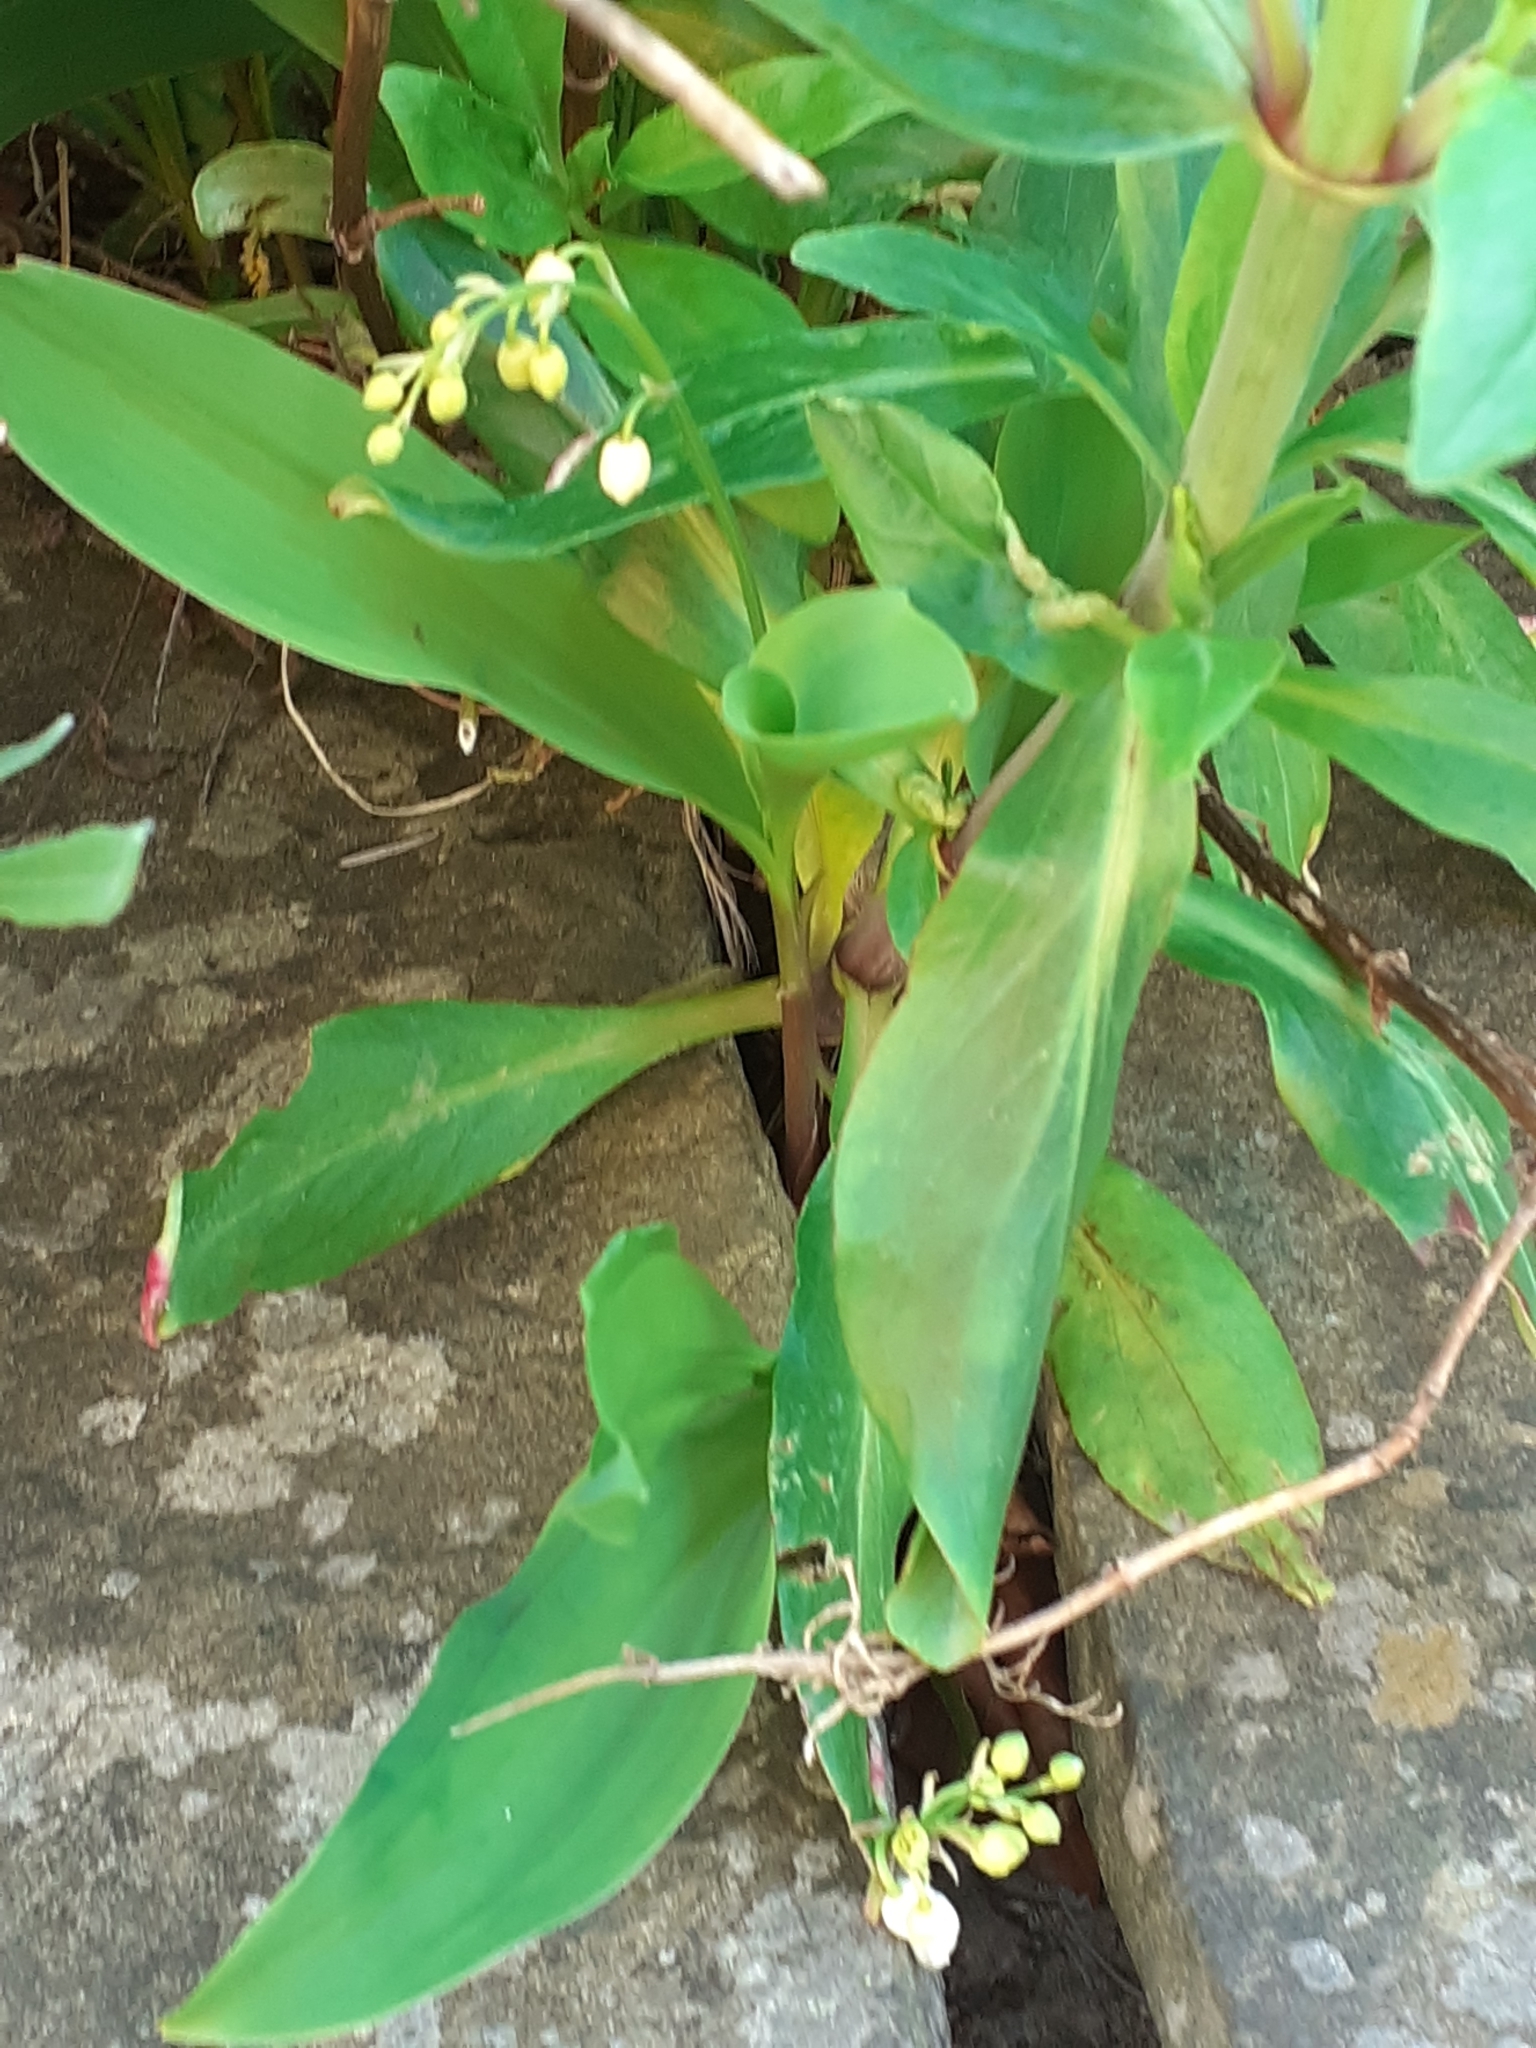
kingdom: Plantae
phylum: Tracheophyta
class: Liliopsida
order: Asparagales
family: Asparagaceae
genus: Convallaria
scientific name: Convallaria majalis
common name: Lily-of-the-valley
